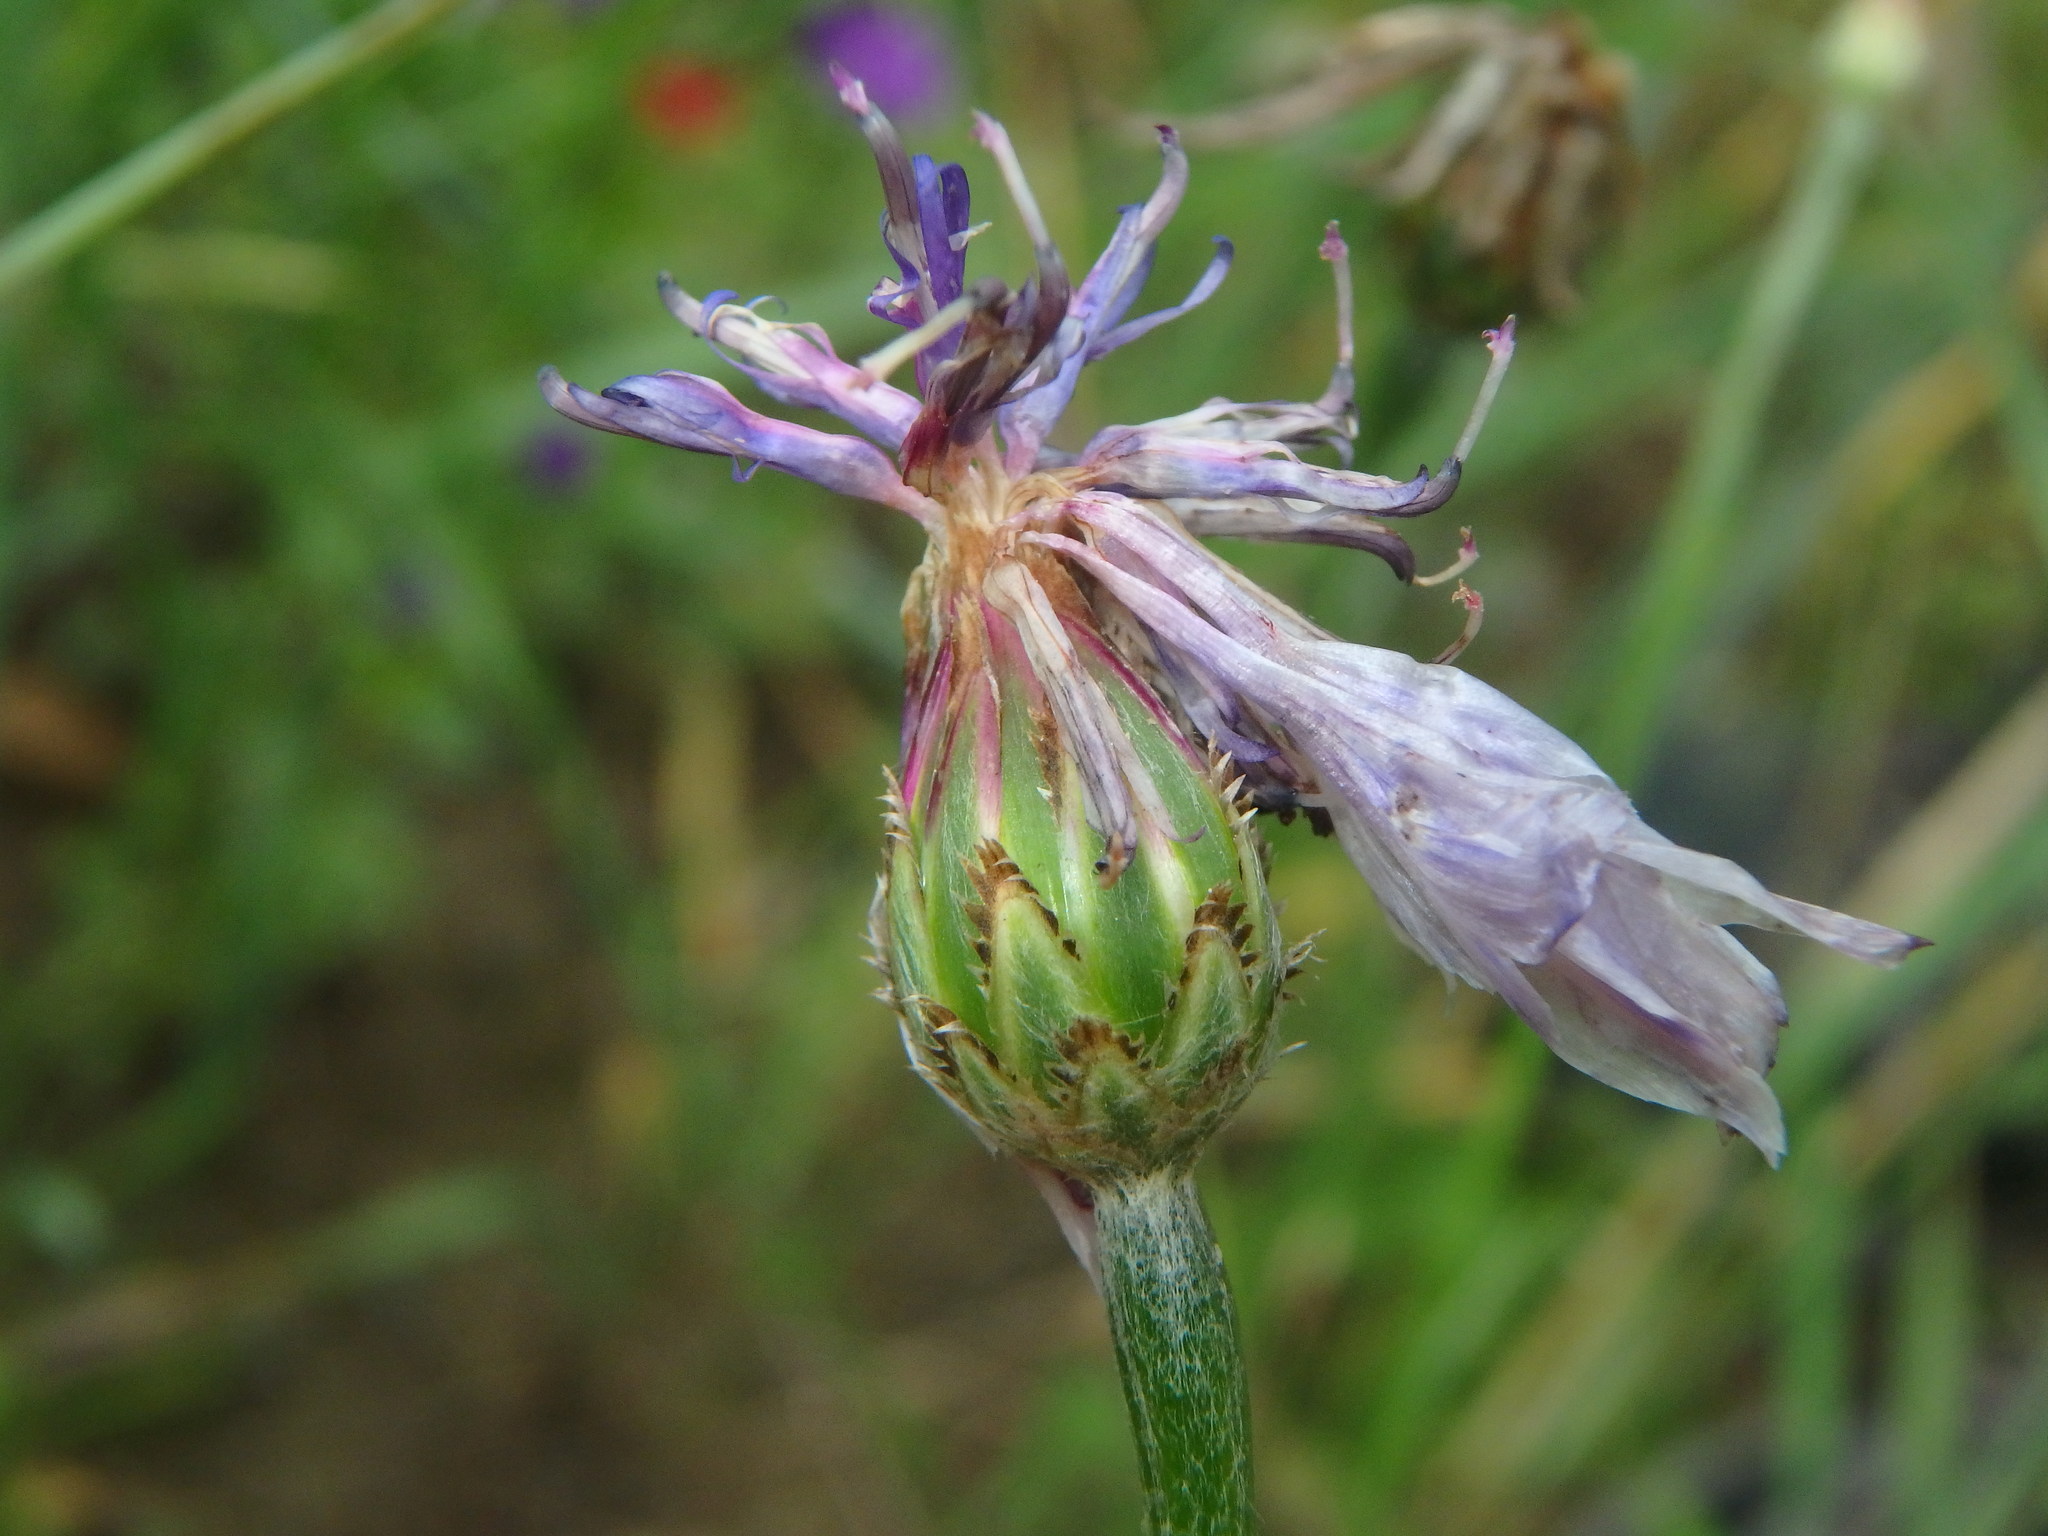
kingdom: Plantae
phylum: Tracheophyta
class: Magnoliopsida
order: Asterales
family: Asteraceae
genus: Centaurea
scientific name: Centaurea cyanus
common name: Cornflower
